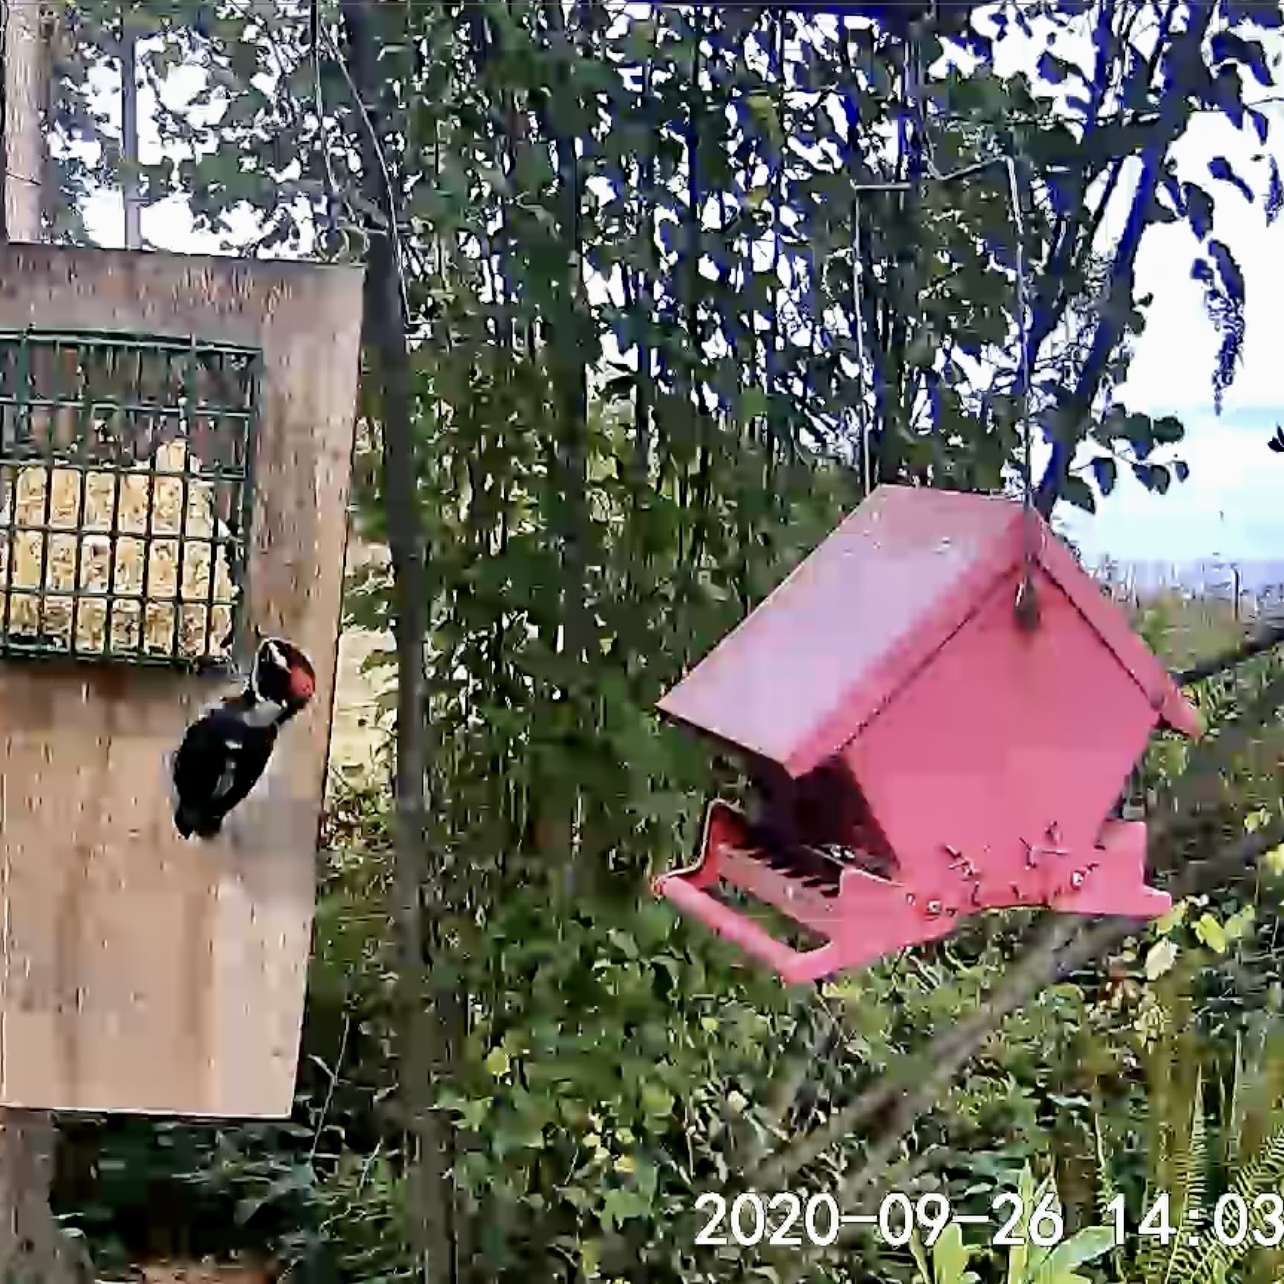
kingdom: Animalia
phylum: Chordata
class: Aves
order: Piciformes
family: Picidae
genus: Dryobates
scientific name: Dryobates pubescens
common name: Downy woodpecker
